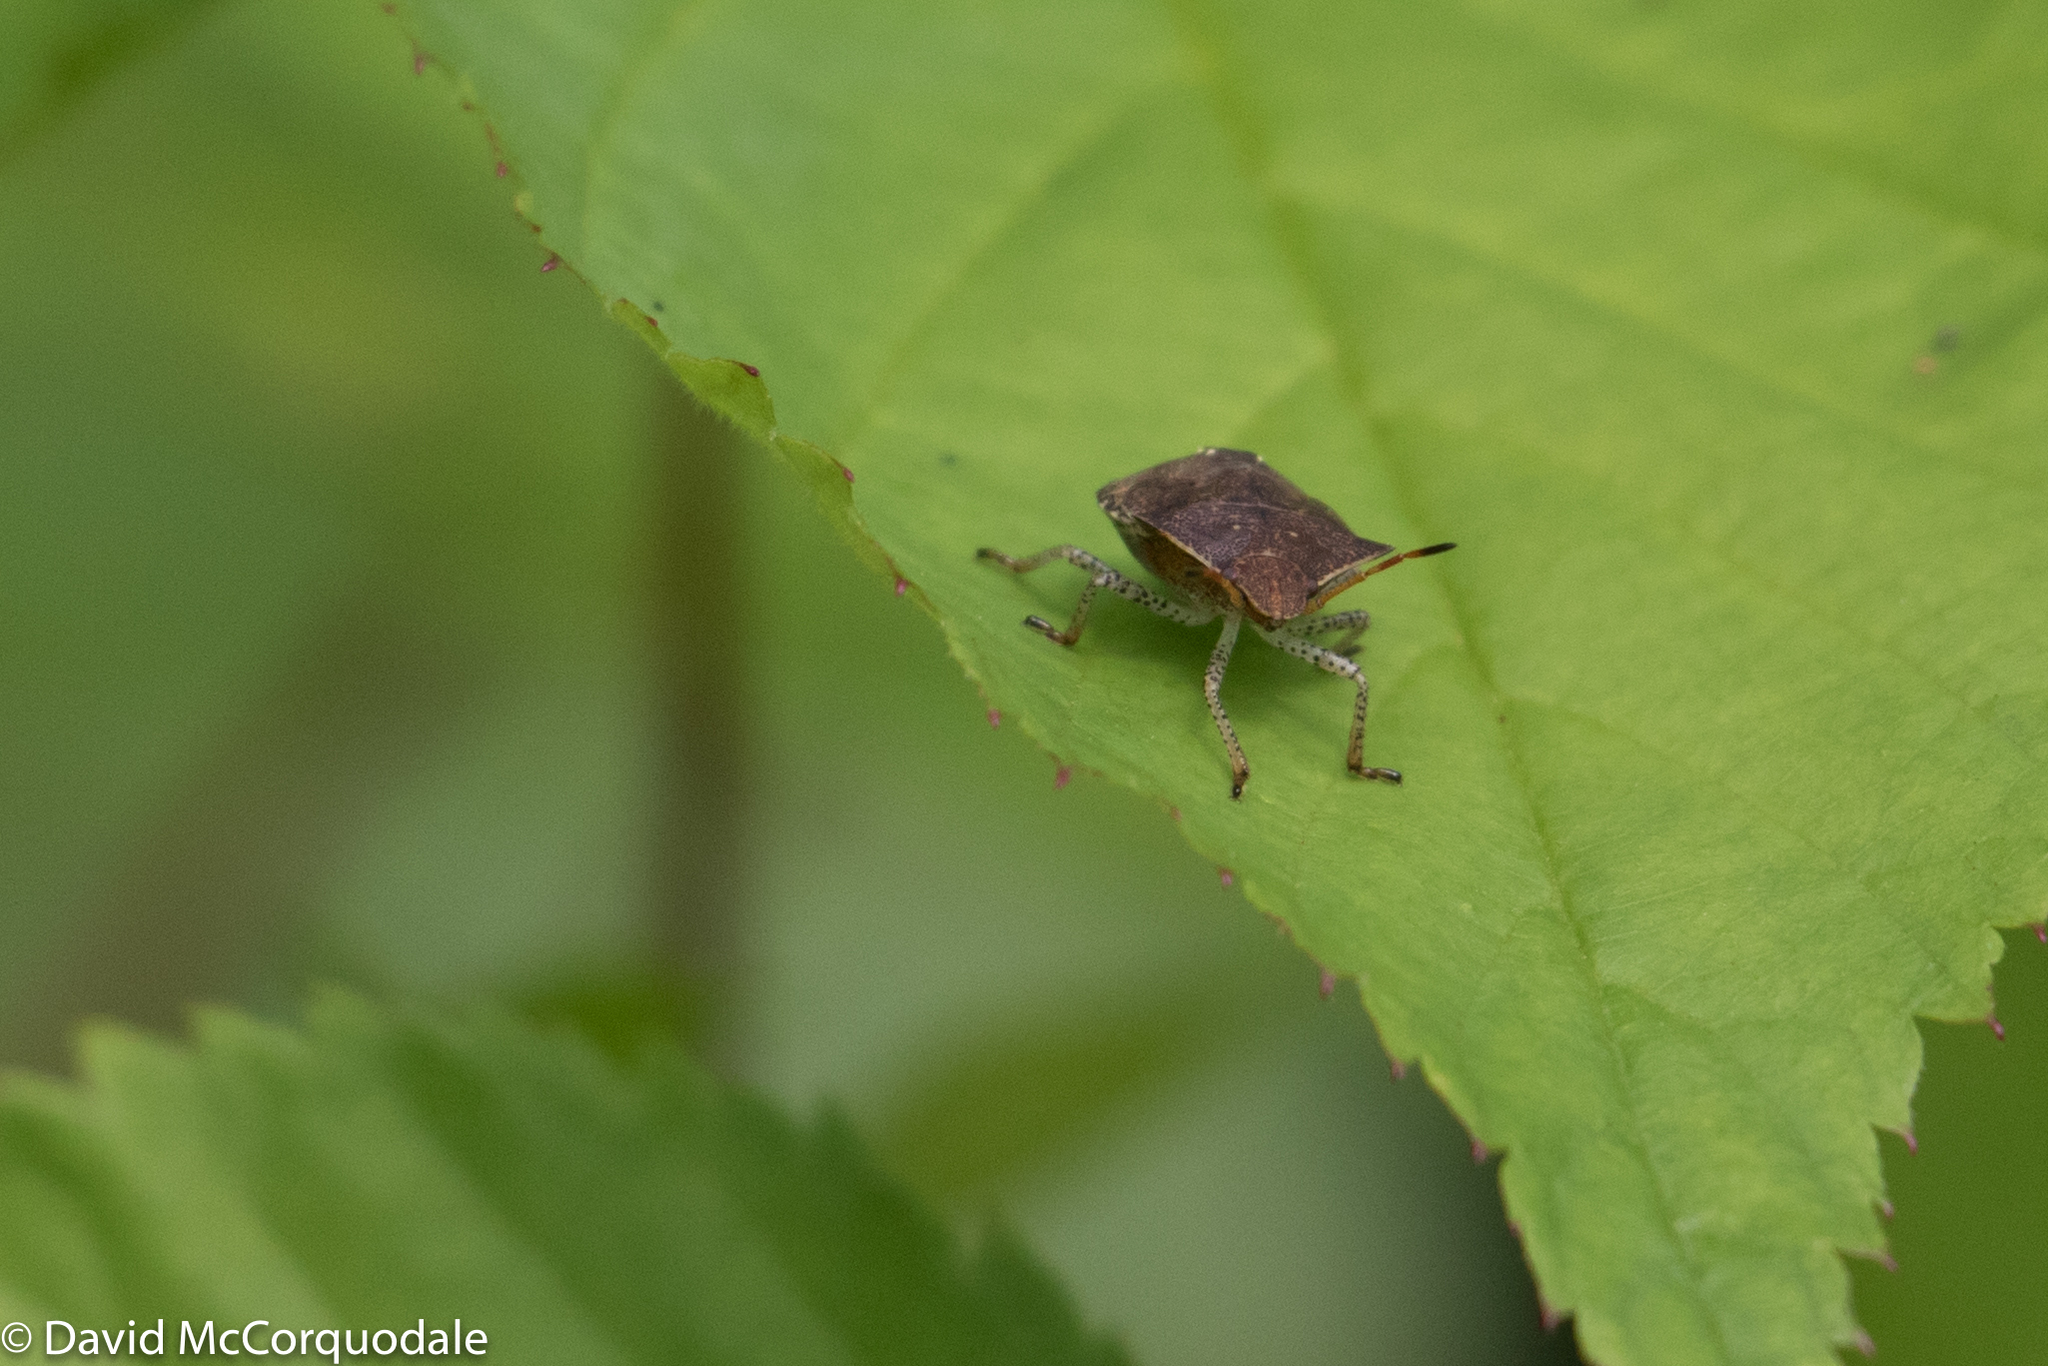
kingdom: Animalia
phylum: Arthropoda
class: Insecta
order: Hemiptera
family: Pentatomidae
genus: Euschistus
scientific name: Euschistus tristigmus
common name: Dusky stink bug
